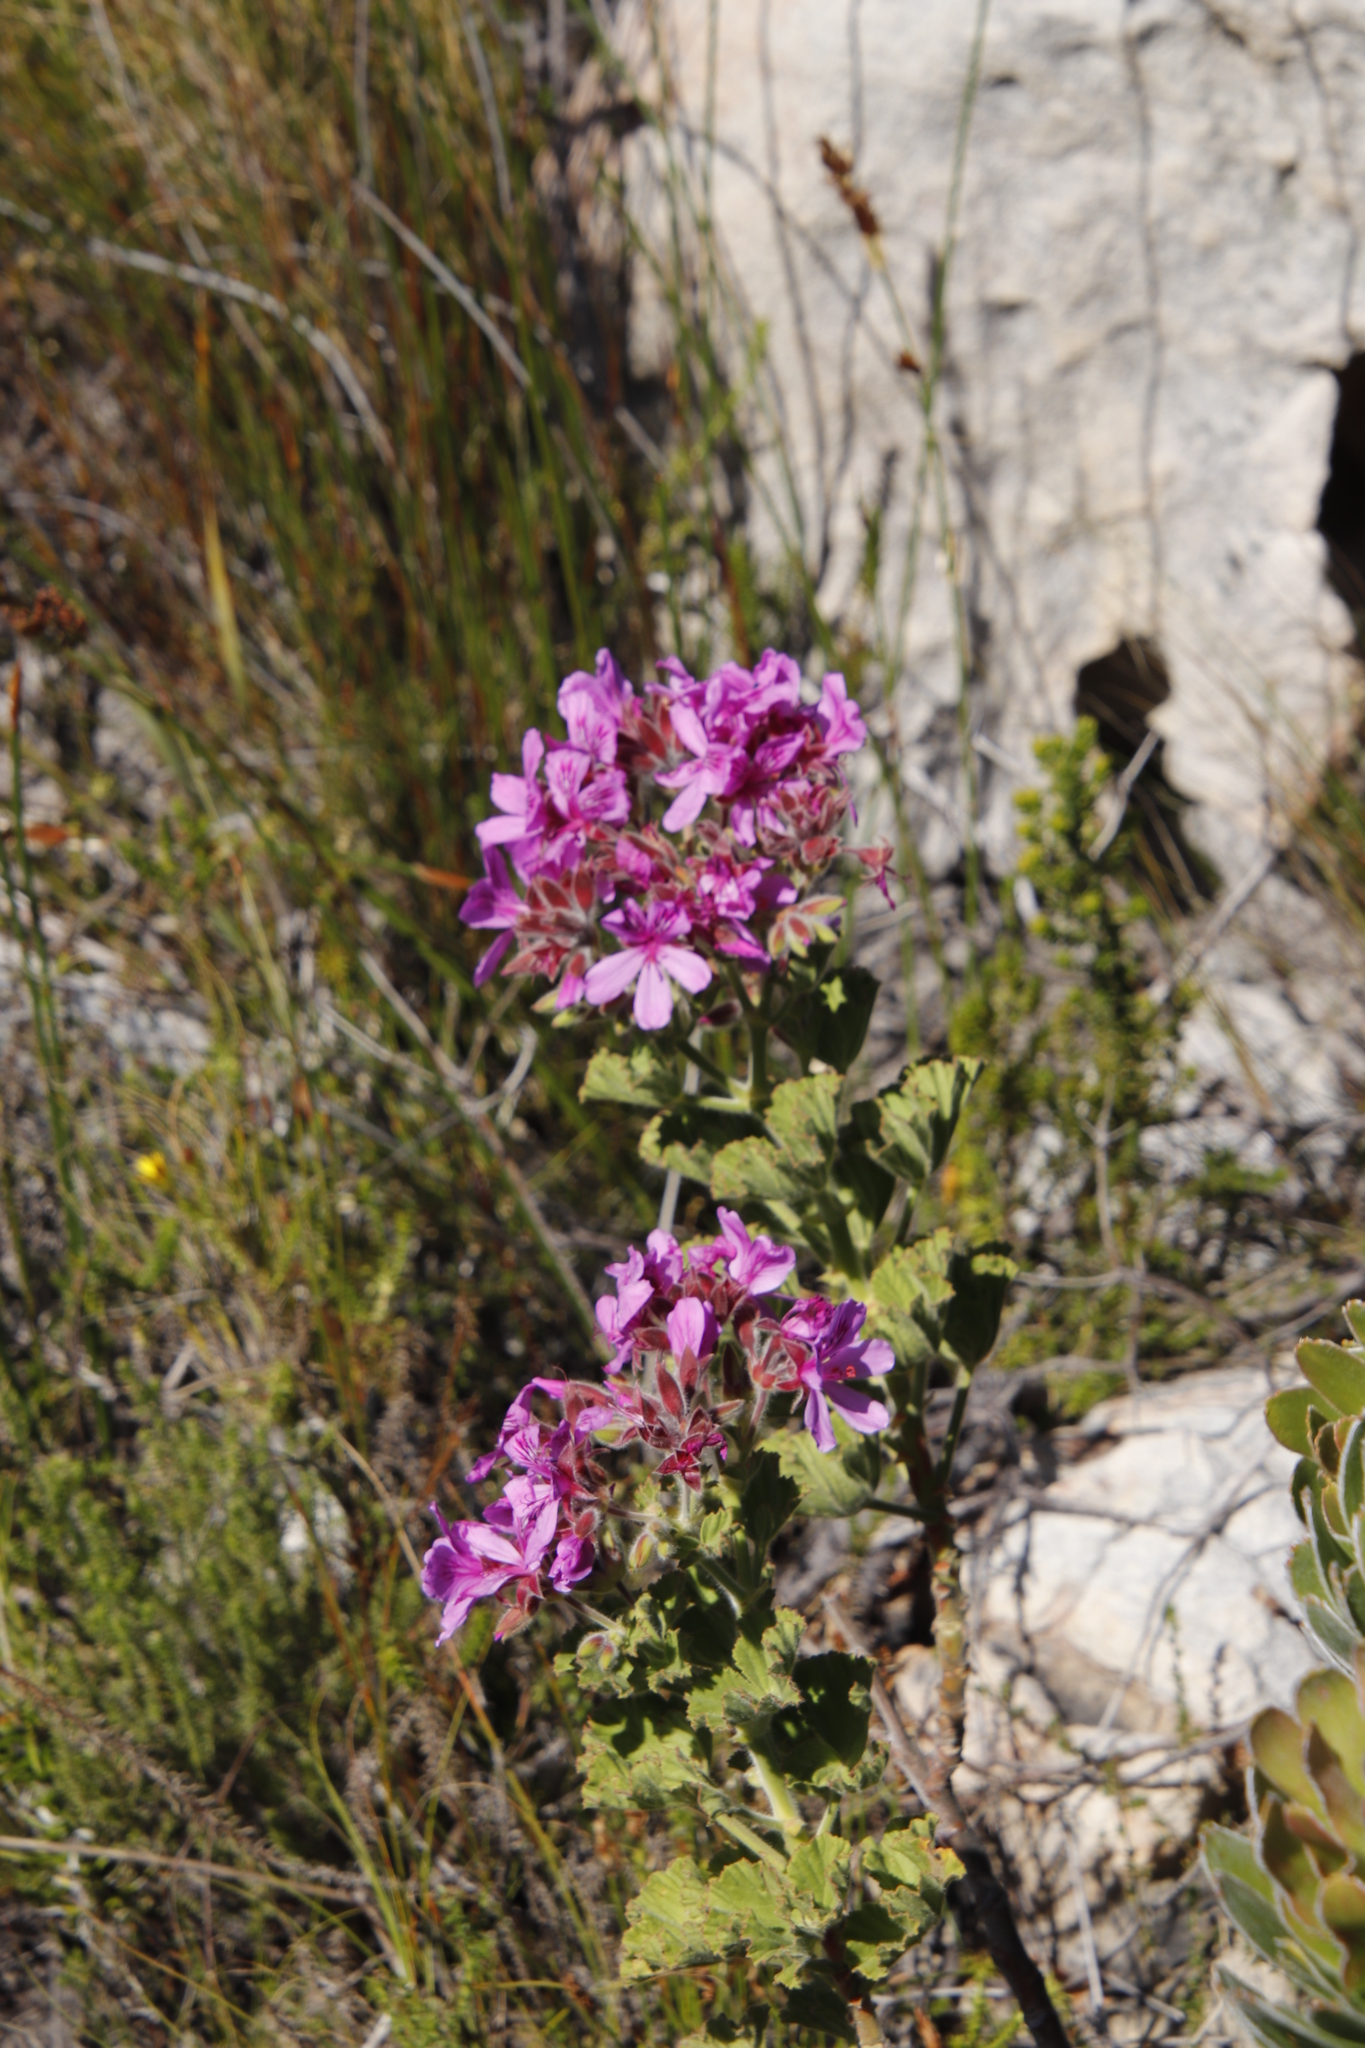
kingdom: Plantae
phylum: Tracheophyta
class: Magnoliopsida
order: Geraniales
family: Geraniaceae
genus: Pelargonium
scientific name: Pelargonium cucullatum
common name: Tree pelargonium
